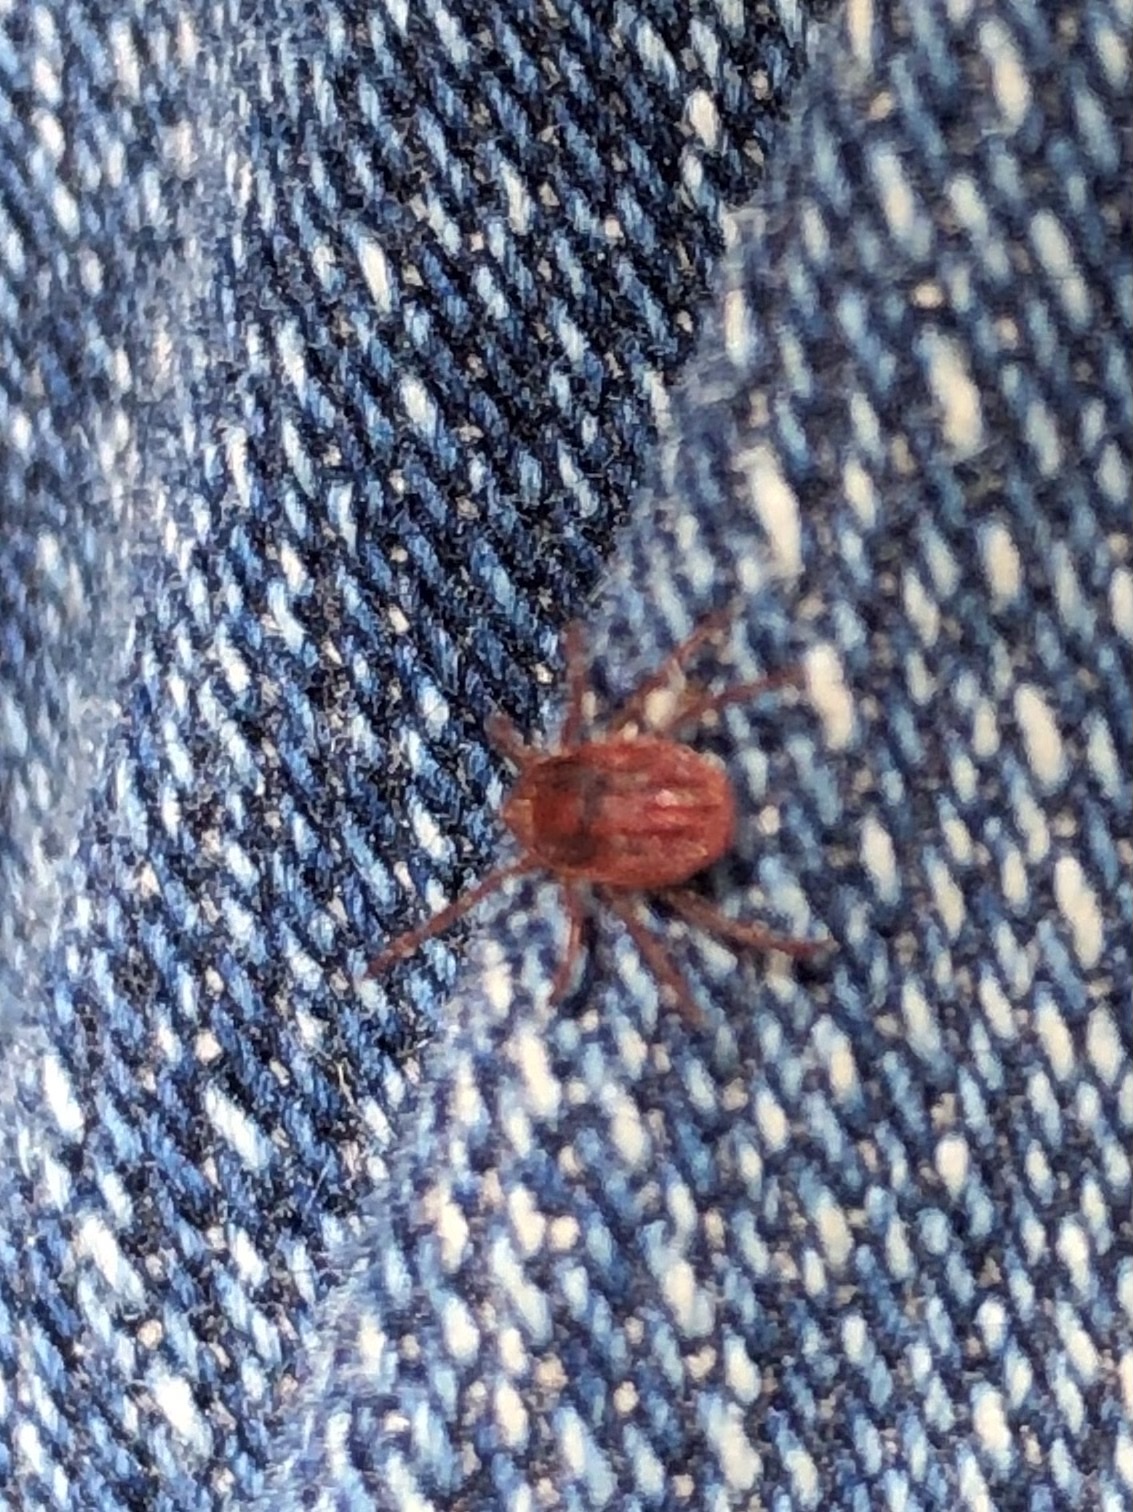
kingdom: Animalia
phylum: Arthropoda
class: Arachnida
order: Ixodida
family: Ixodidae
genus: Rhipicephalus
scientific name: Rhipicephalus sanguineus
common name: Brown dog tick
